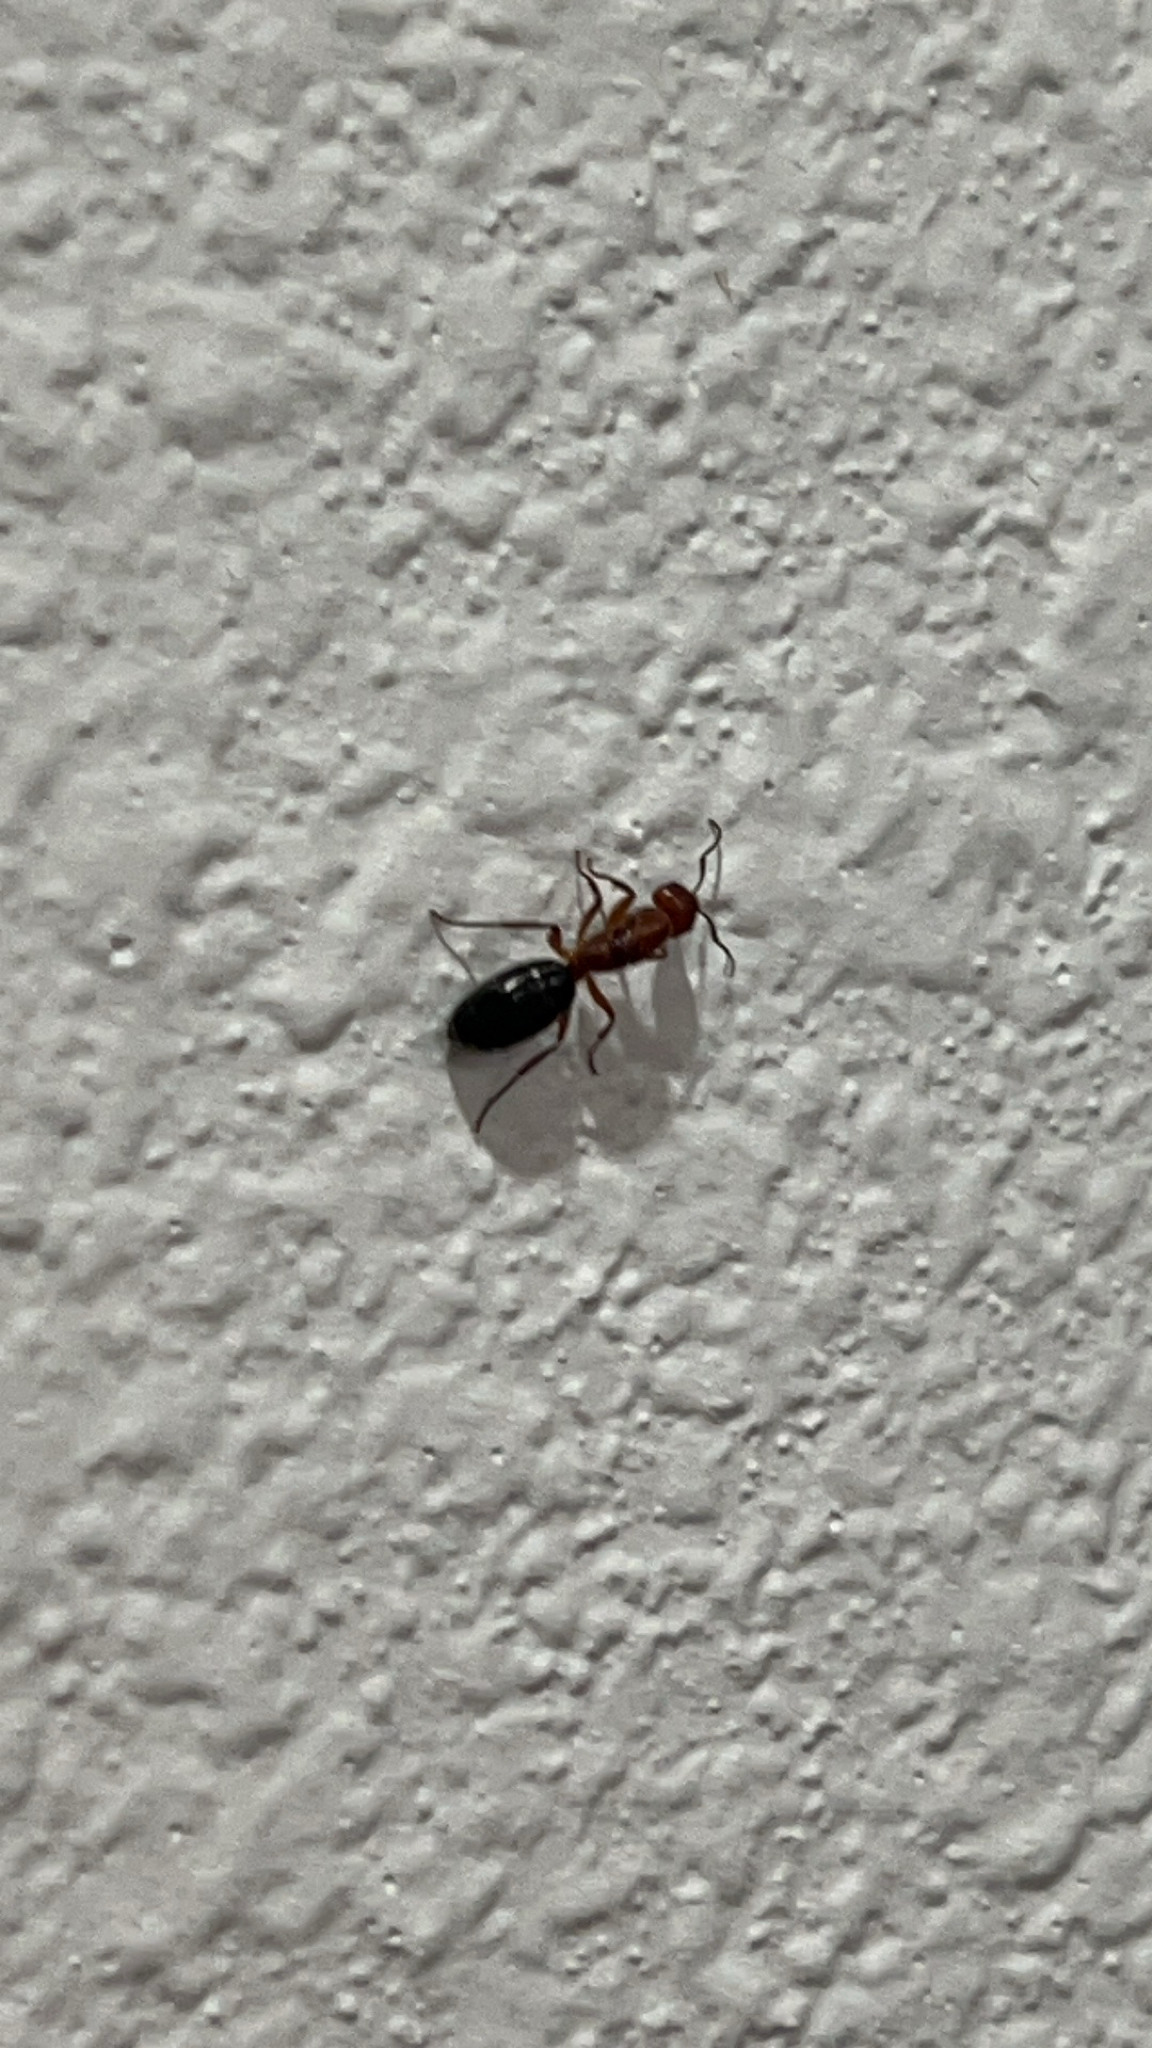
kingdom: Animalia
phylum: Arthropoda
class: Insecta
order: Hymenoptera
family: Formicidae
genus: Camponotus
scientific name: Camponotus decipiens
